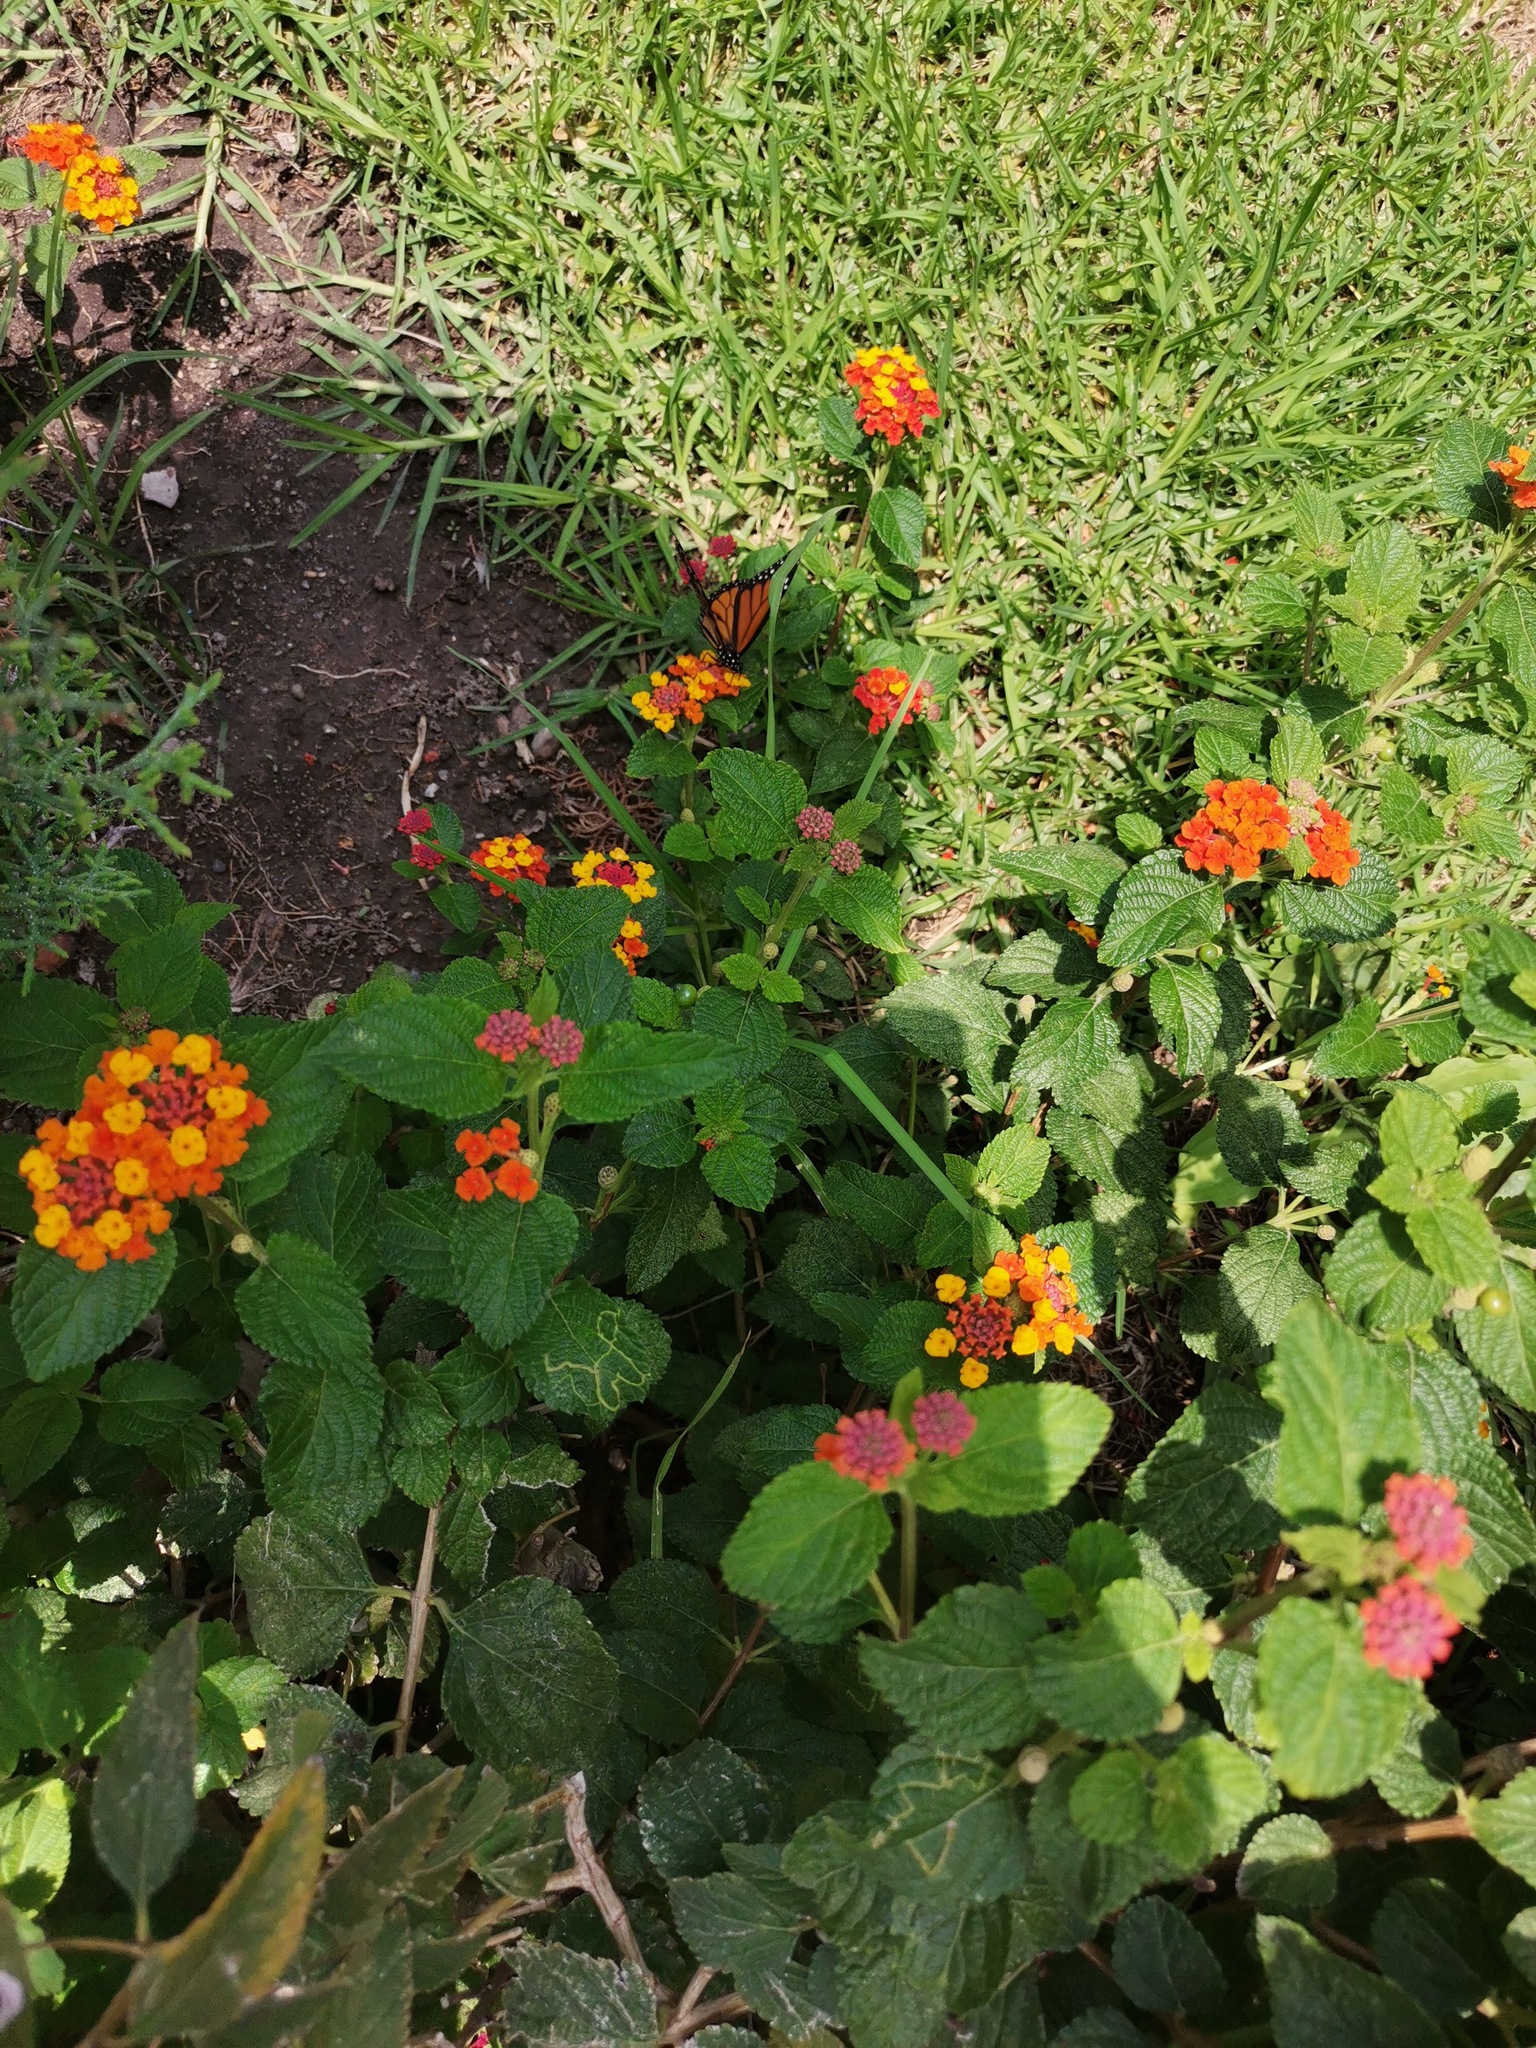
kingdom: Animalia
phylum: Arthropoda
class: Insecta
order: Lepidoptera
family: Nymphalidae
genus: Danaus
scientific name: Danaus plexippus
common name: Monarch
